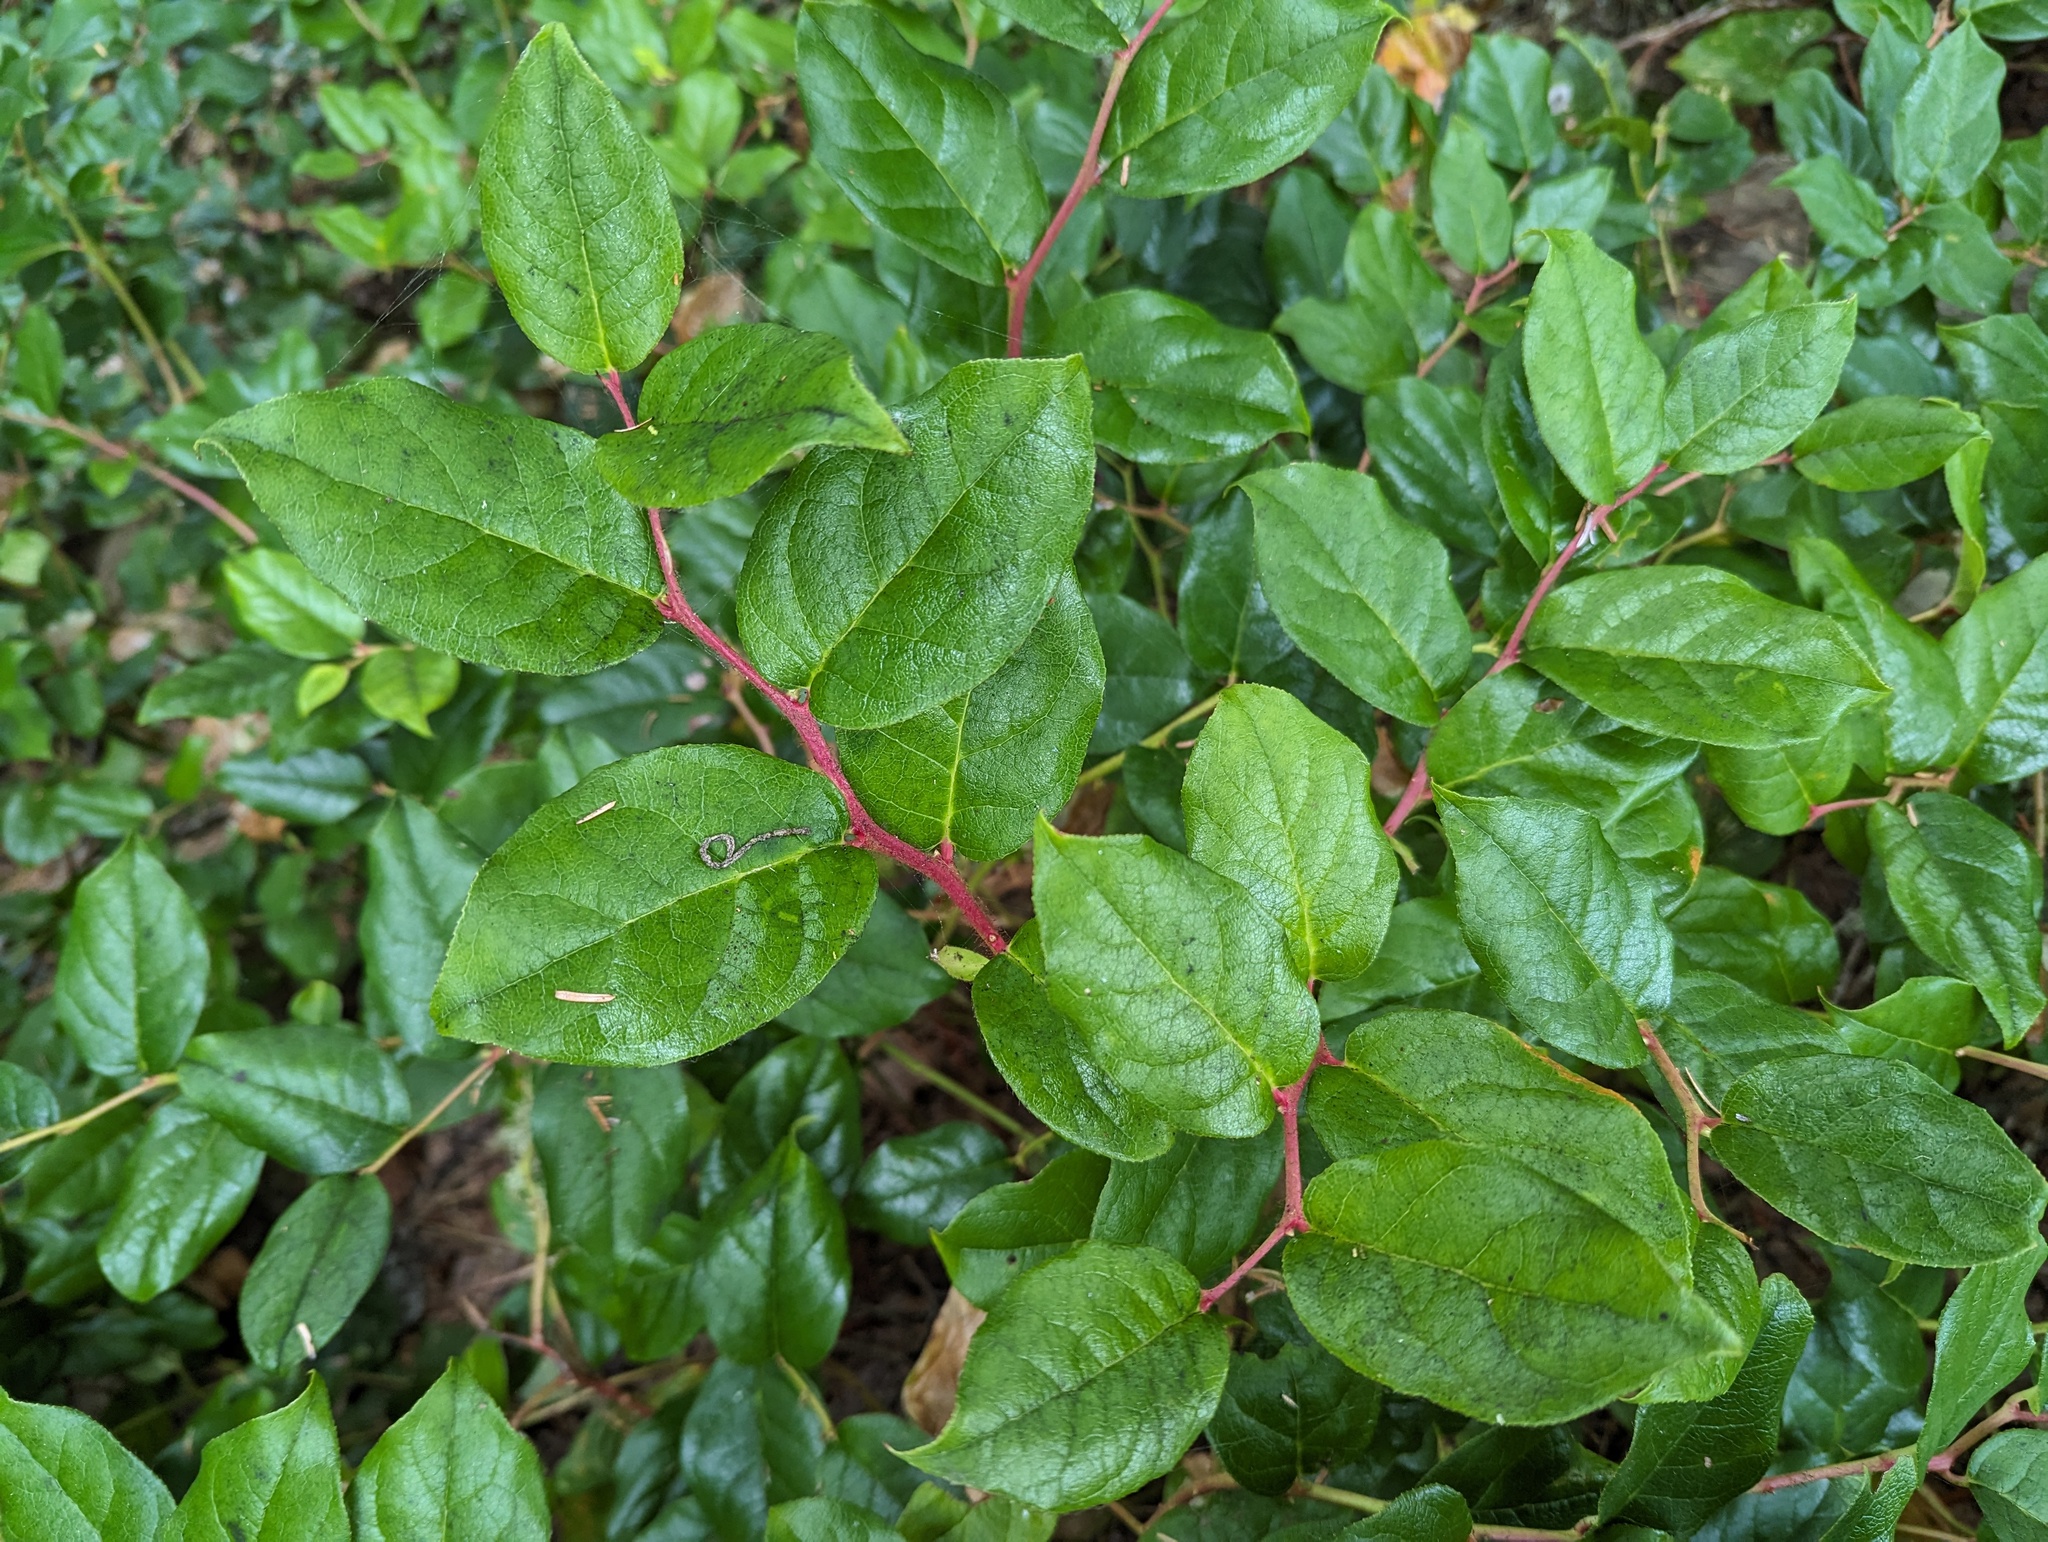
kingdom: Plantae
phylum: Tracheophyta
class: Magnoliopsida
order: Ericales
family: Ericaceae
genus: Gaultheria
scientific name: Gaultheria shallon
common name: Shallon
